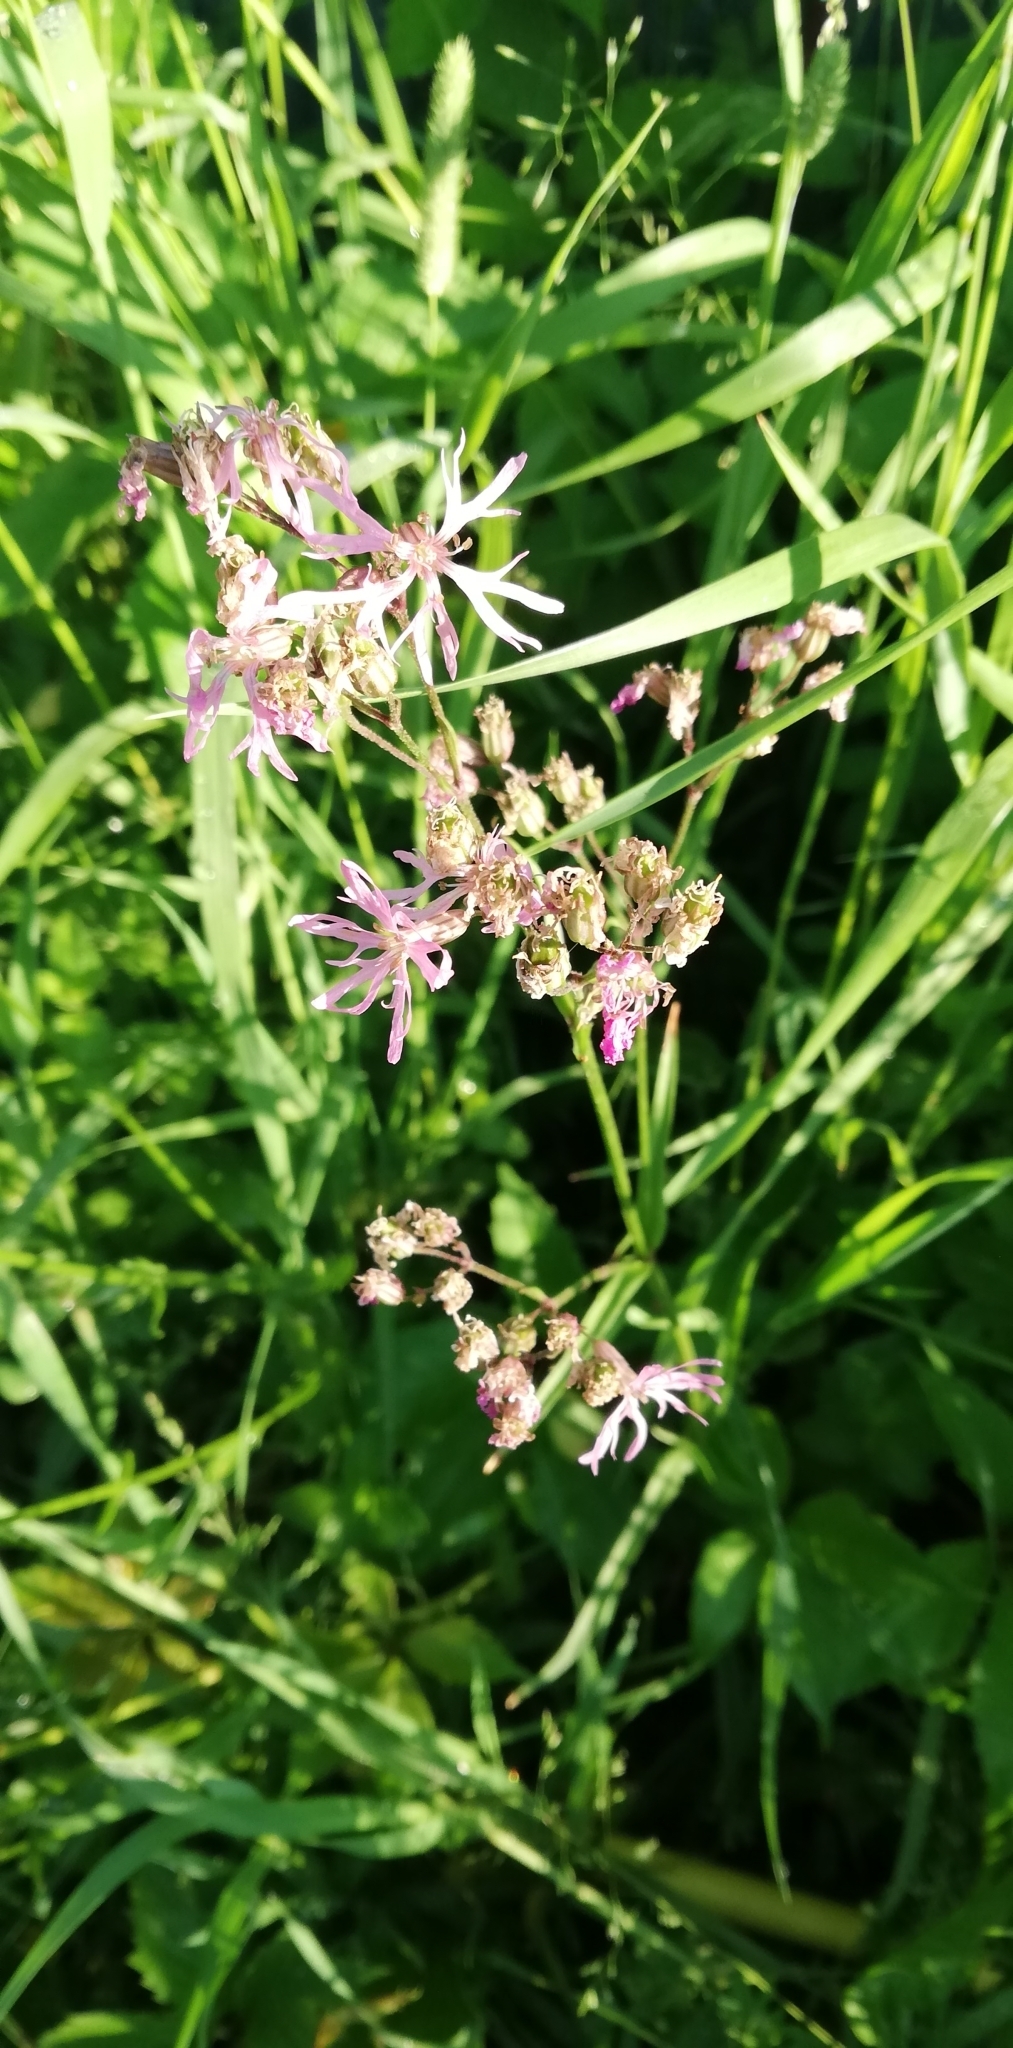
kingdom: Plantae
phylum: Tracheophyta
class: Magnoliopsida
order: Caryophyllales
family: Caryophyllaceae
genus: Silene
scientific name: Silene flos-cuculi
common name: Ragged-robin
